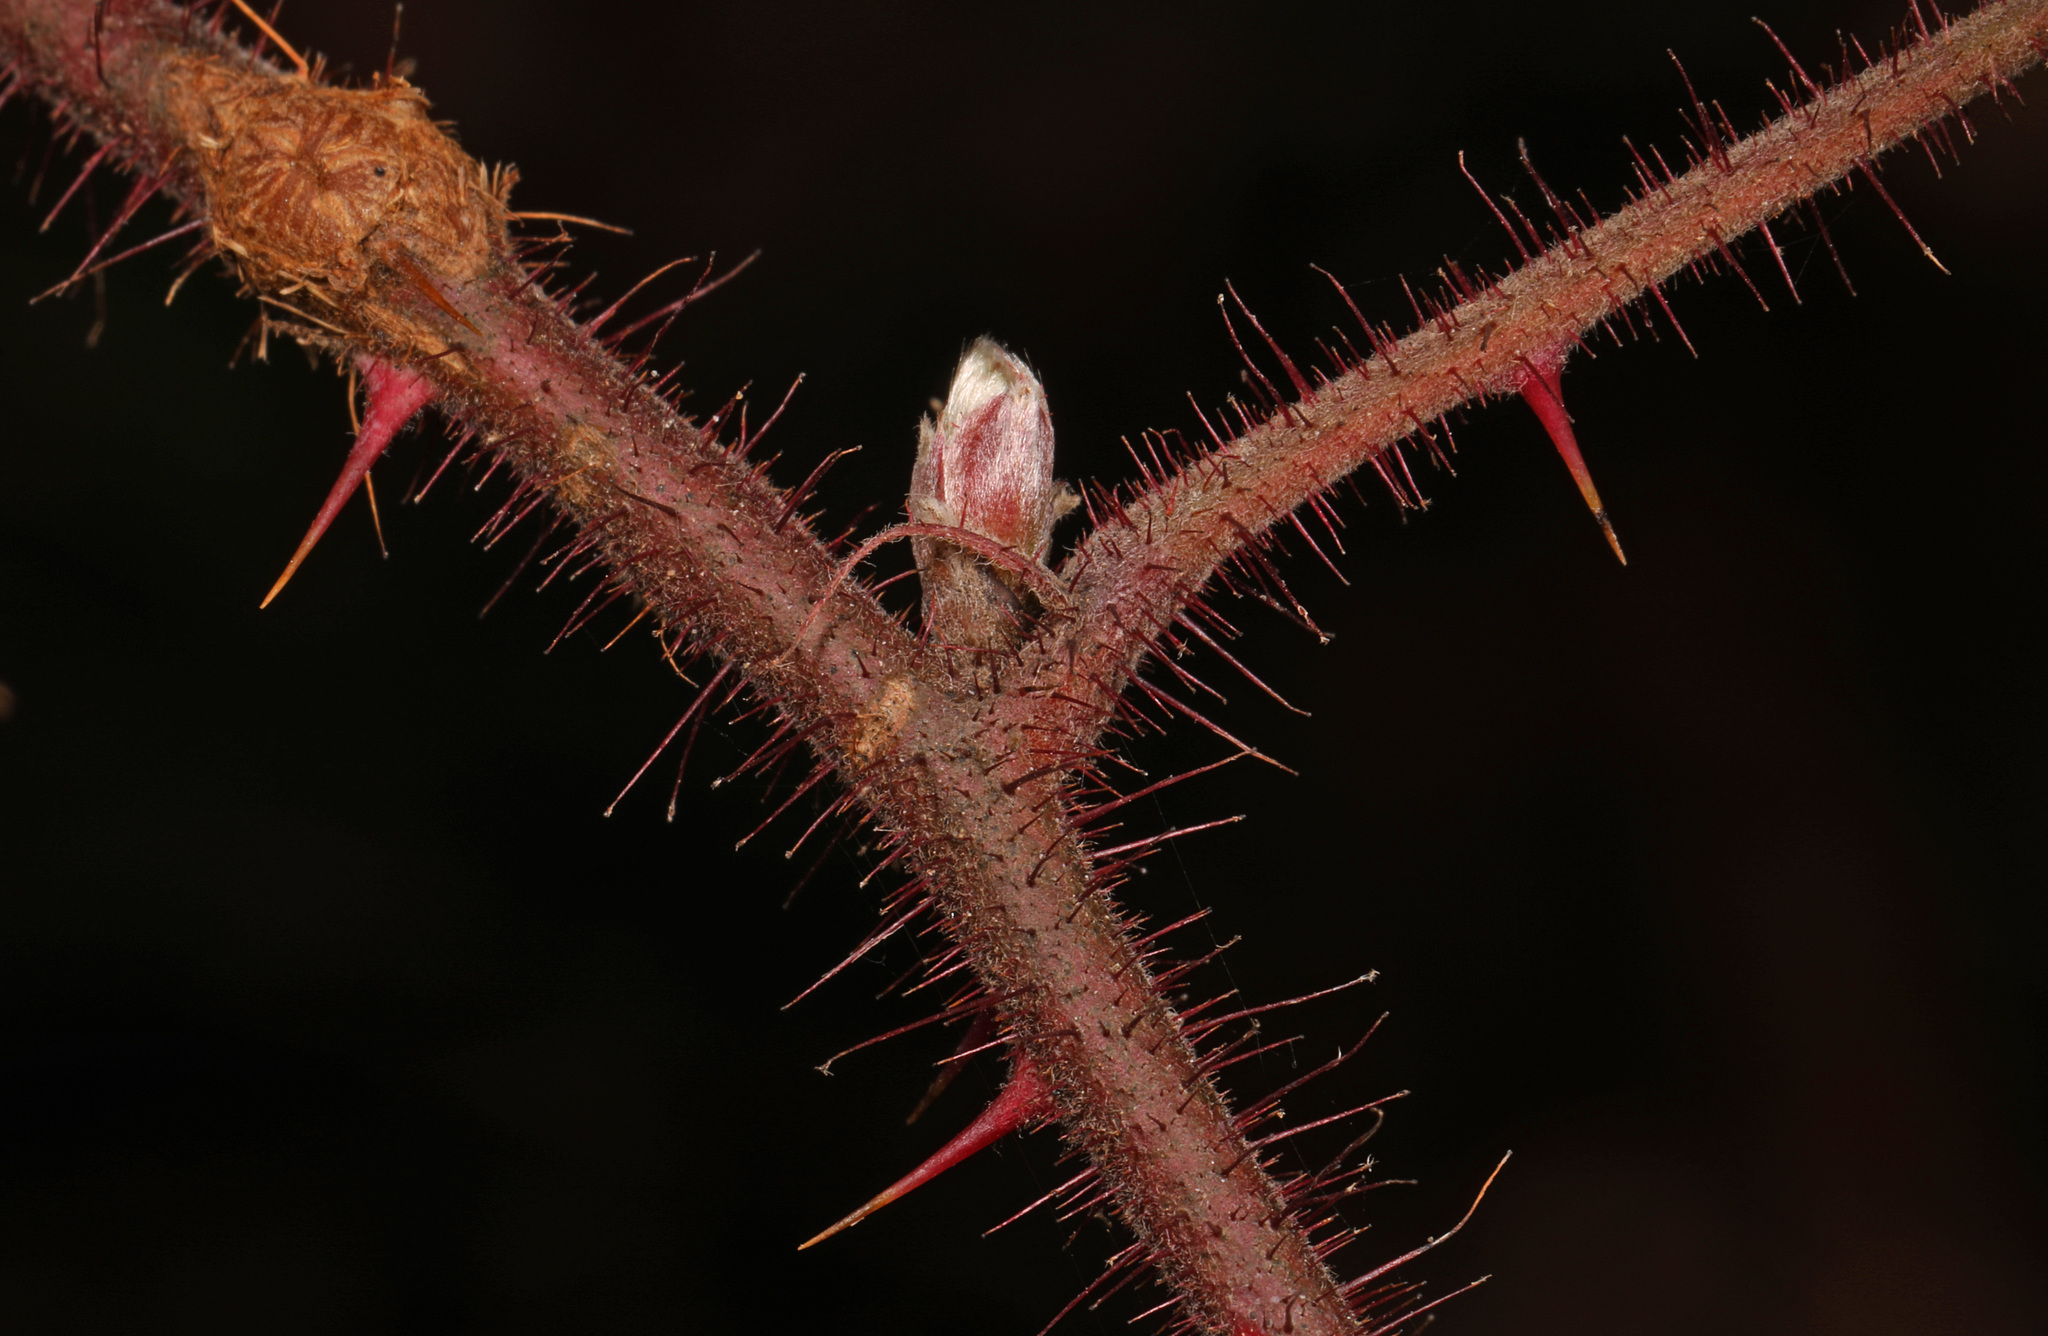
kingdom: Plantae
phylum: Tracheophyta
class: Magnoliopsida
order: Rosales
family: Rosaceae
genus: Rubus
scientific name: Rubus phoenicolasius
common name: Japanese wineberry
